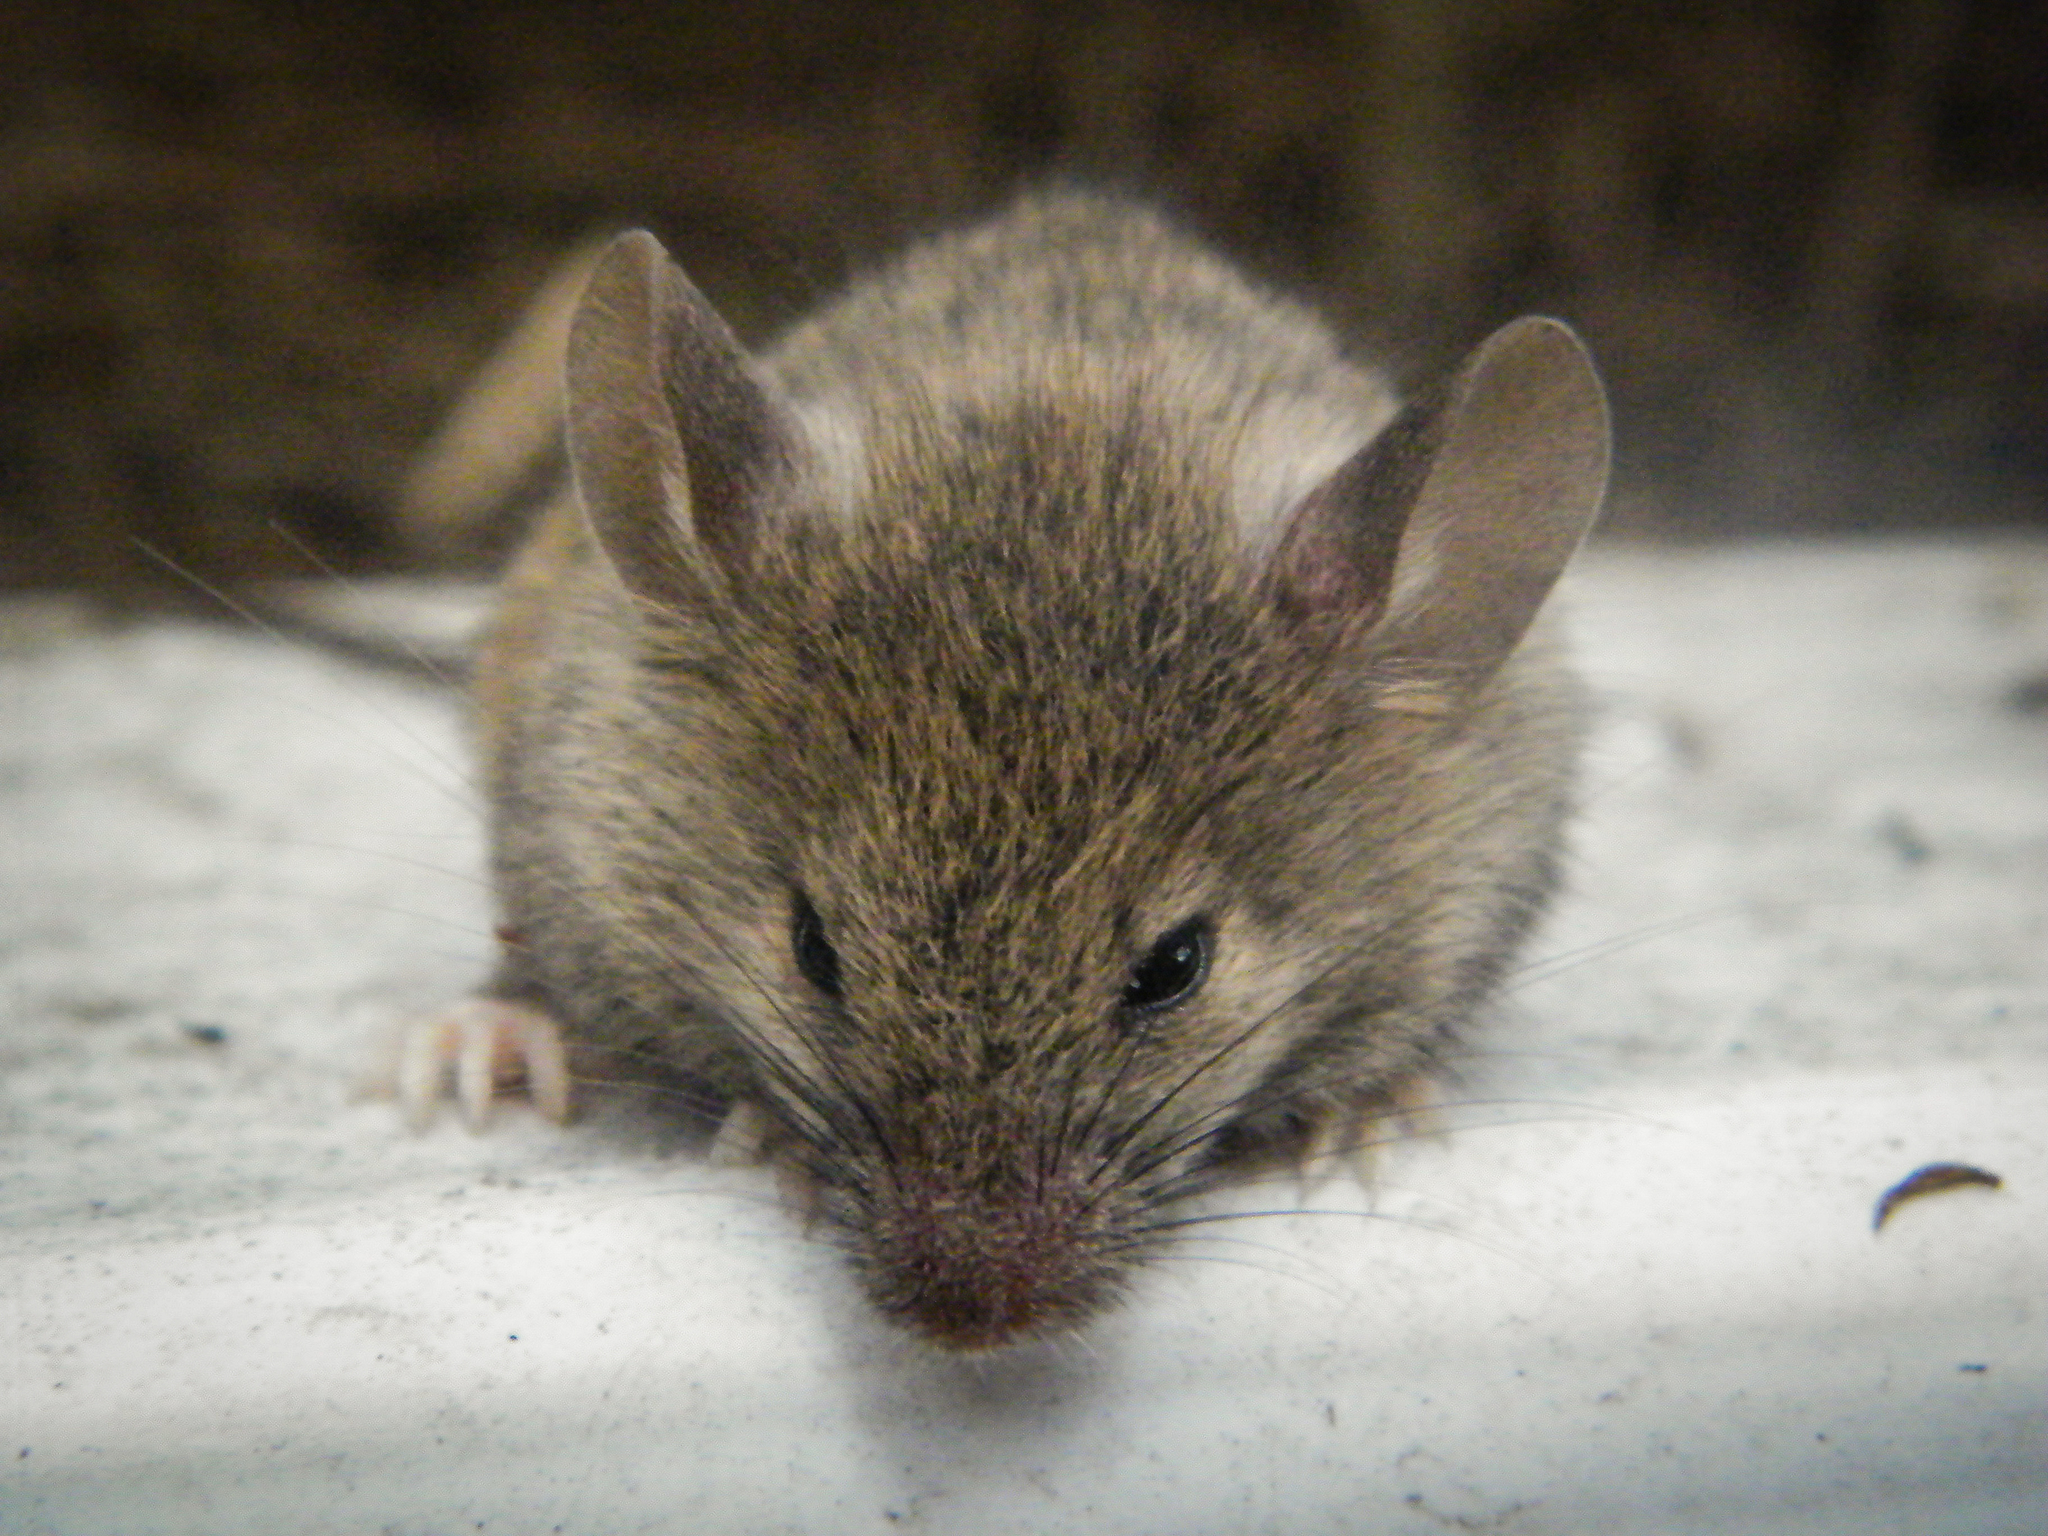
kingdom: Animalia
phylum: Chordata
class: Mammalia
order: Rodentia
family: Muridae
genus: Mus
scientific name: Mus musculus
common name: House mouse
